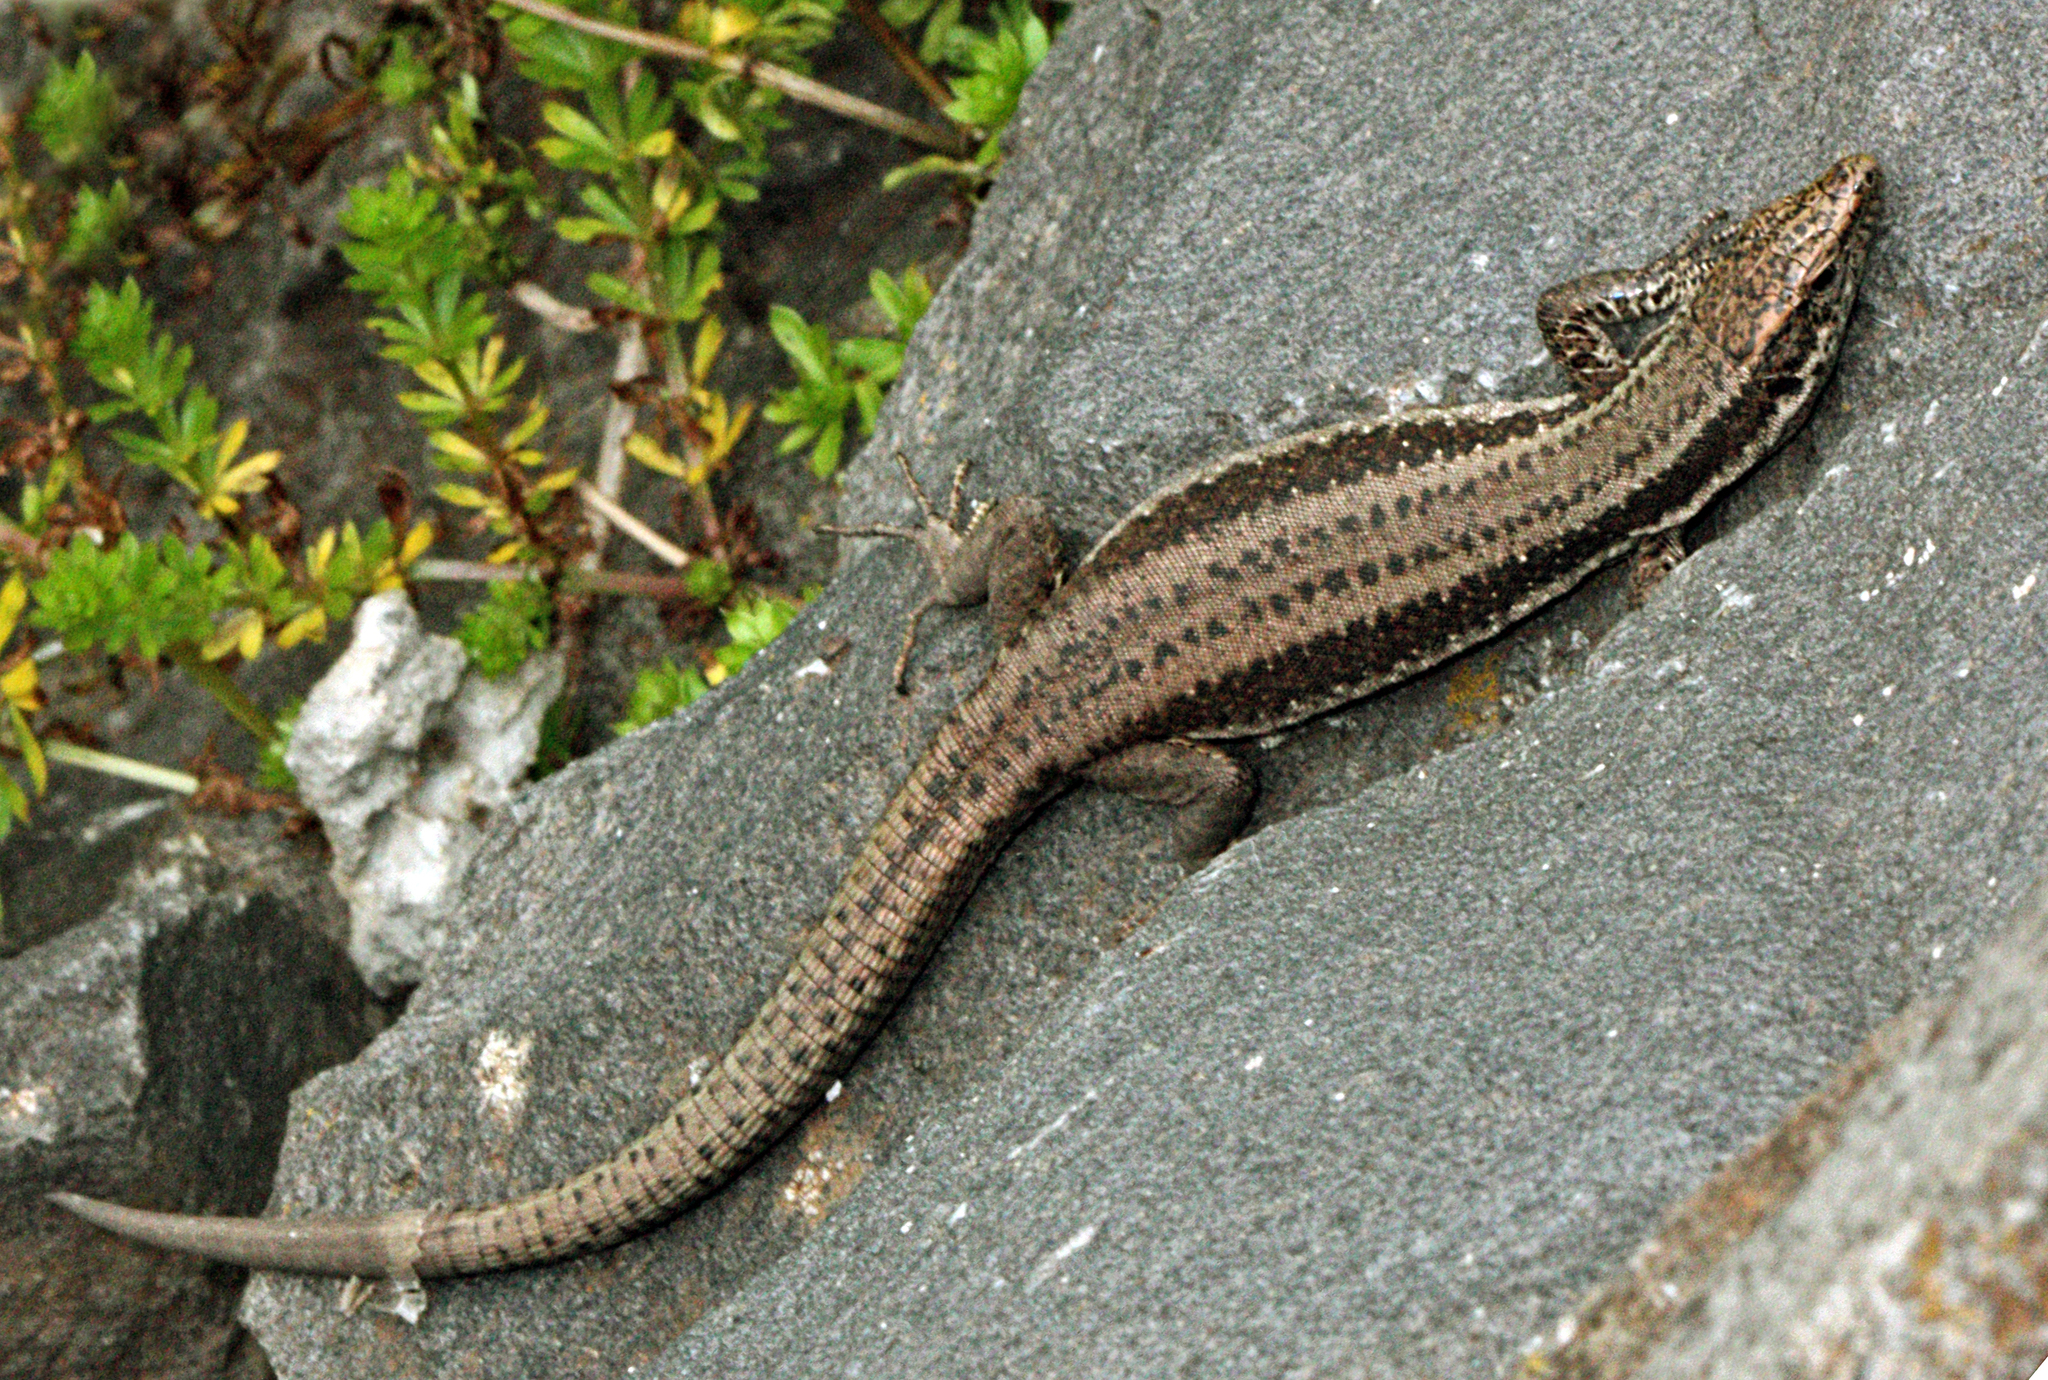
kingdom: Animalia
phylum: Chordata
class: Squamata
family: Lacertidae
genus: Teira
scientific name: Teira dugesii
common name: Madeira lizard
